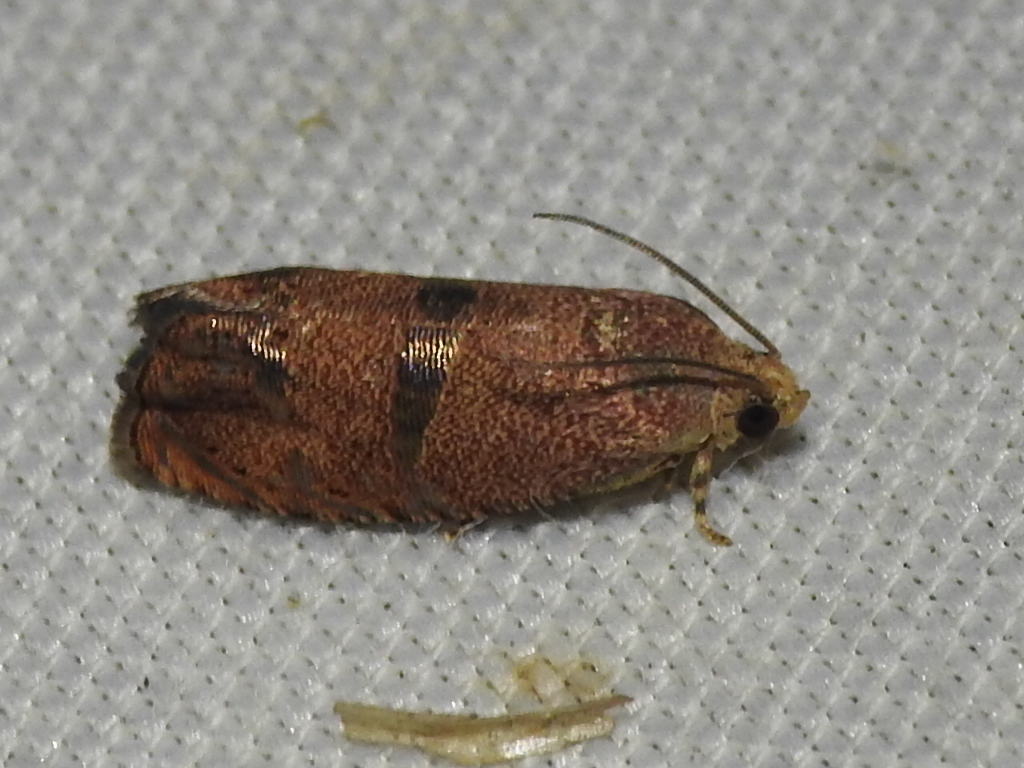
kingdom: Animalia
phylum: Arthropoda
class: Insecta
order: Lepidoptera
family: Tortricidae
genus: Cydia
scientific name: Cydia latiferreana
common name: Filbertworm moth
